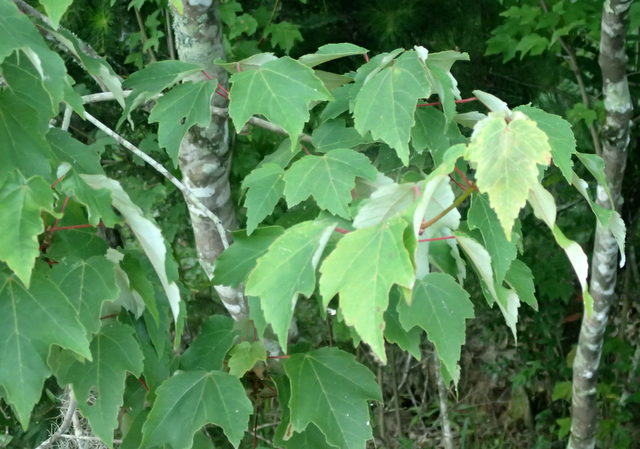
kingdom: Plantae
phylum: Tracheophyta
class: Magnoliopsida
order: Sapindales
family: Sapindaceae
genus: Acer
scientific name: Acer rubrum
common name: Red maple
